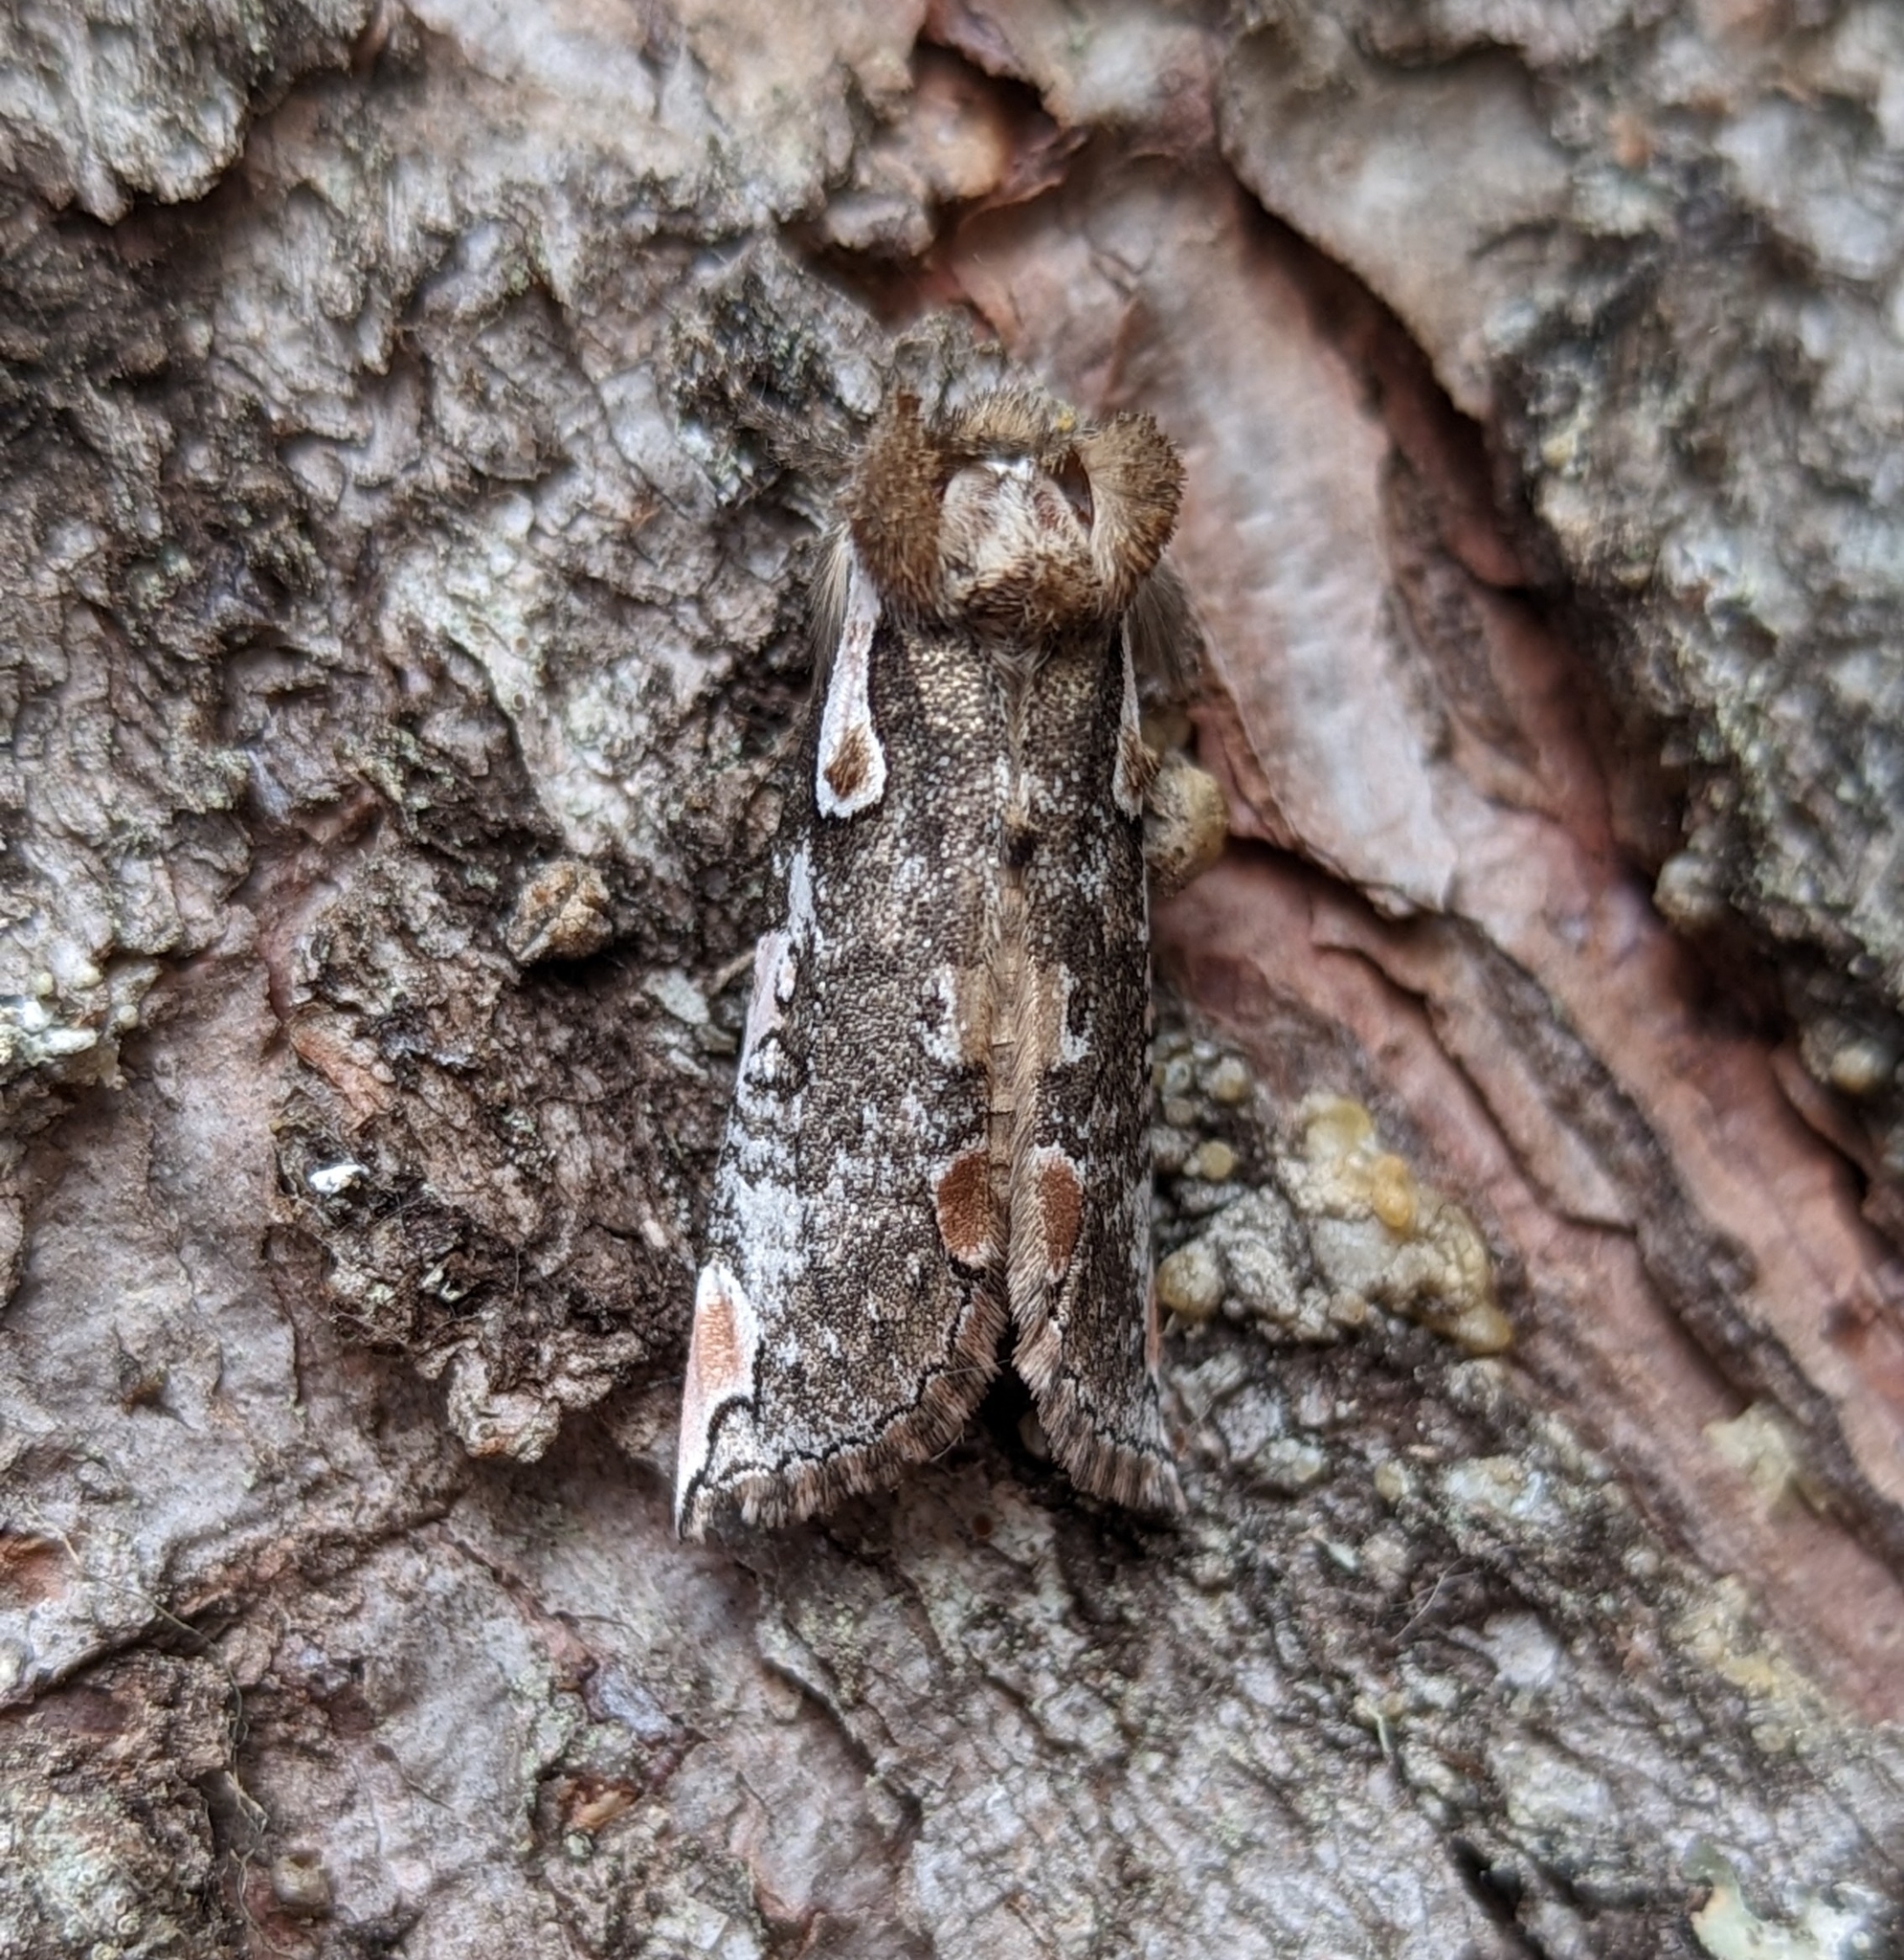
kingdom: Animalia
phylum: Arthropoda
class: Insecta
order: Lepidoptera
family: Drepanidae
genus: Euthyatira
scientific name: Euthyatira pudens
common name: Dogwood thyatirid moth
